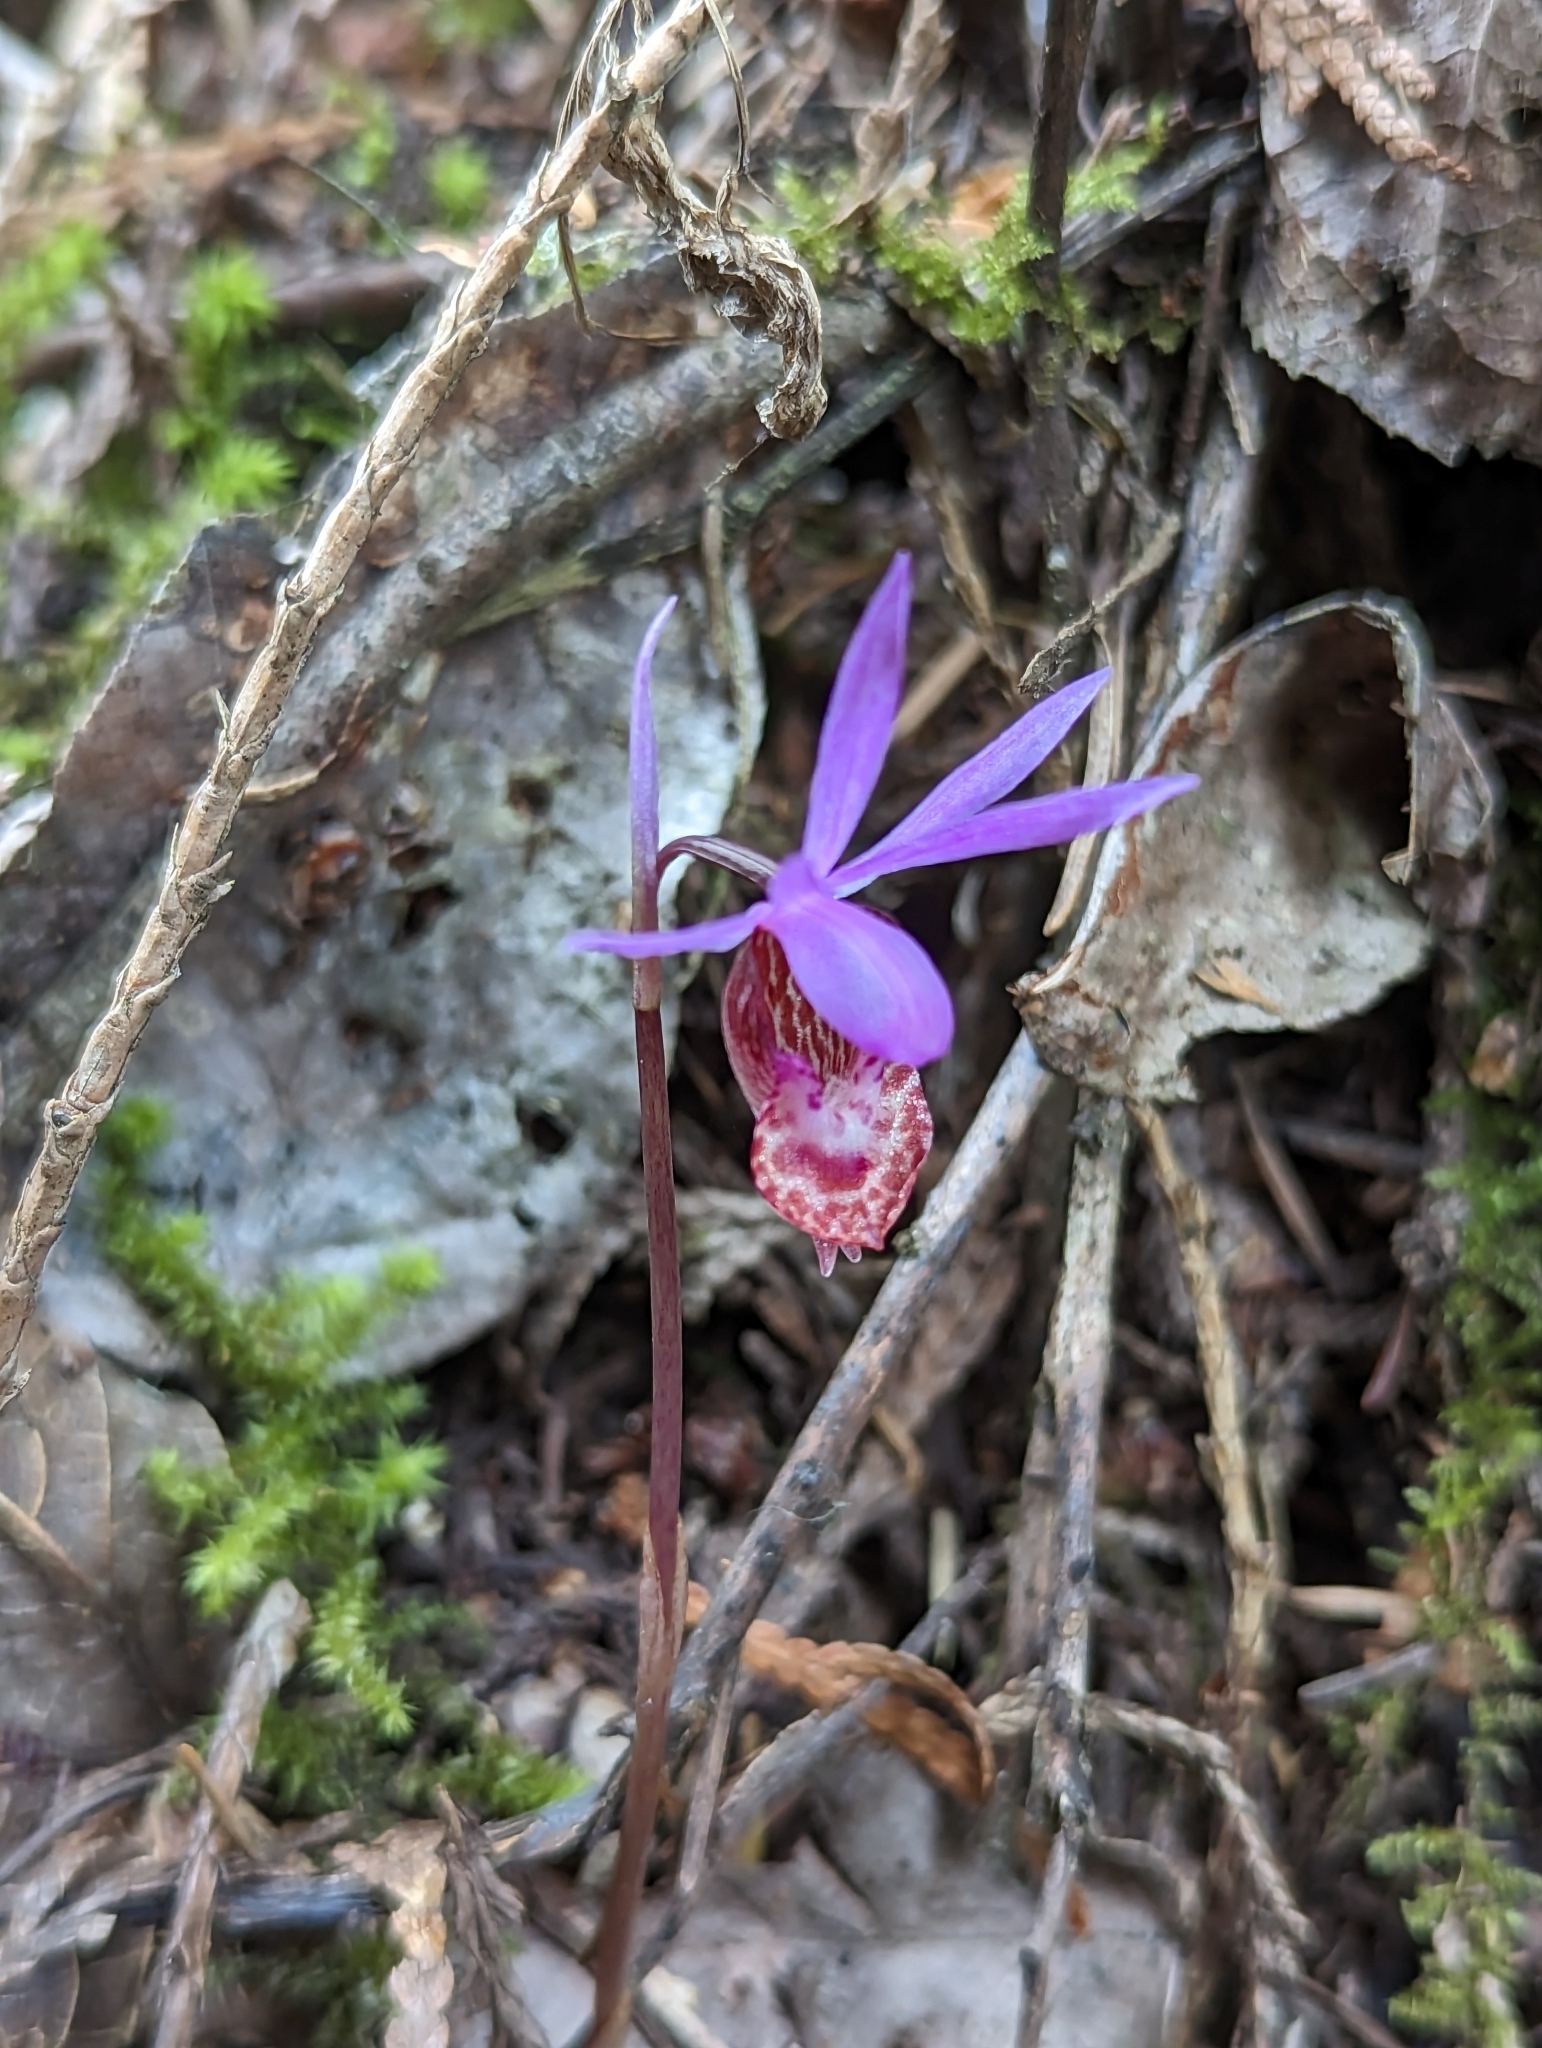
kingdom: Plantae
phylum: Tracheophyta
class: Liliopsida
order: Asparagales
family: Orchidaceae
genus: Calypso
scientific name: Calypso bulbosa
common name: Calypso
